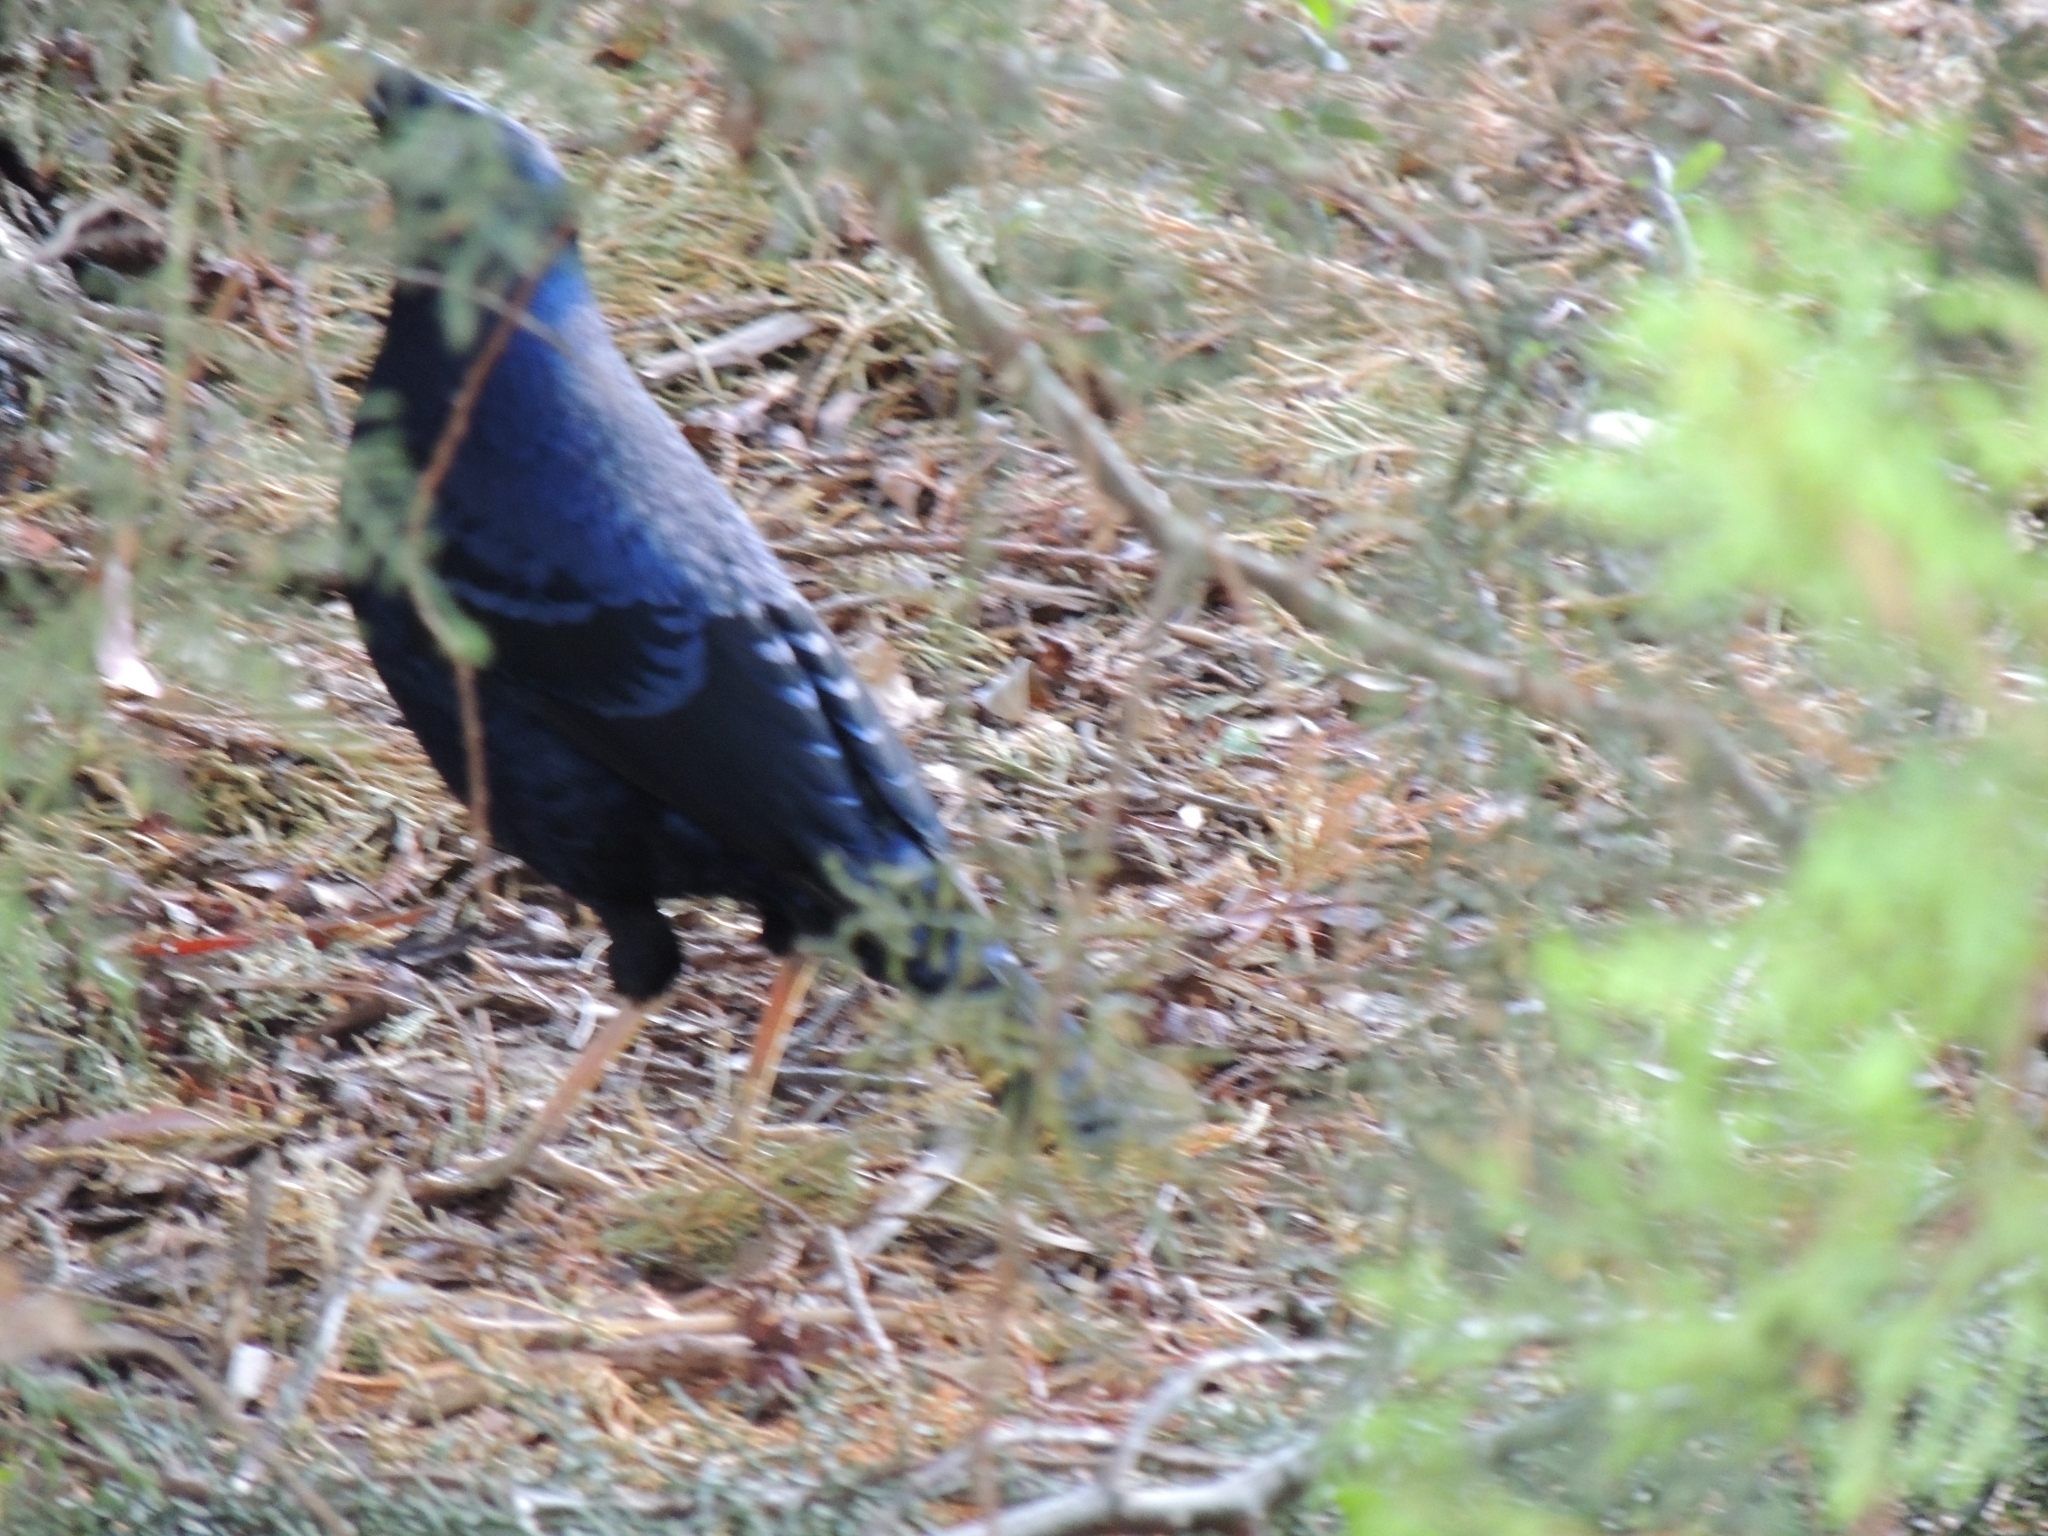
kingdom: Animalia
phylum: Chordata
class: Aves
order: Passeriformes
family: Ptilonorhynchidae
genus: Ptilonorhynchus
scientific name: Ptilonorhynchus violaceus
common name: Satin bowerbird
